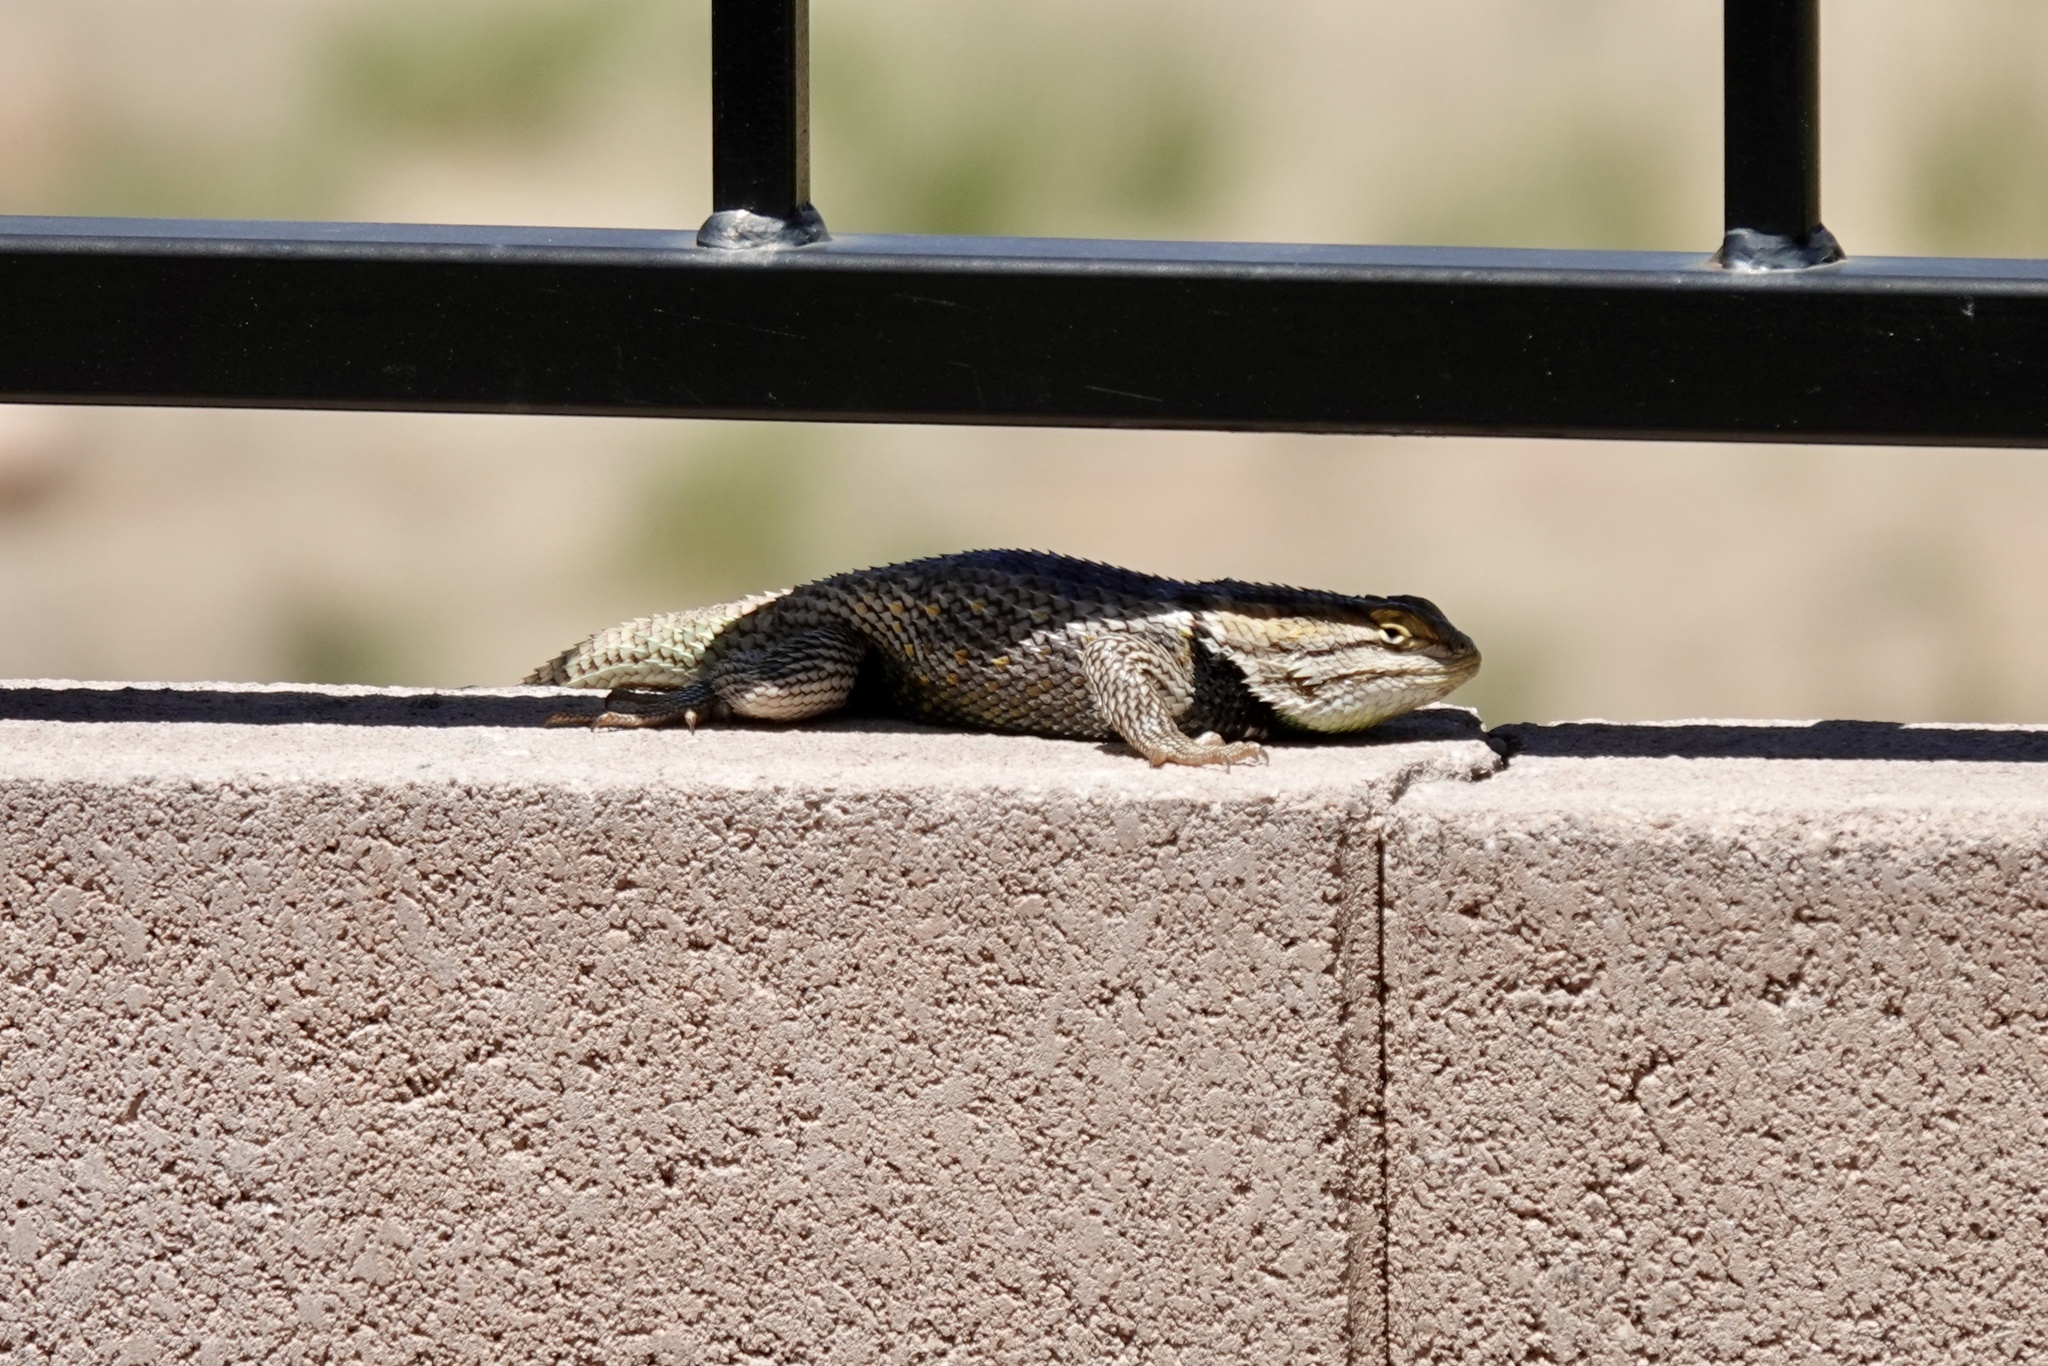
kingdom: Animalia
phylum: Chordata
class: Squamata
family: Phrynosomatidae
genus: Sceloporus
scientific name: Sceloporus magister
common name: Desert spiny lizard
